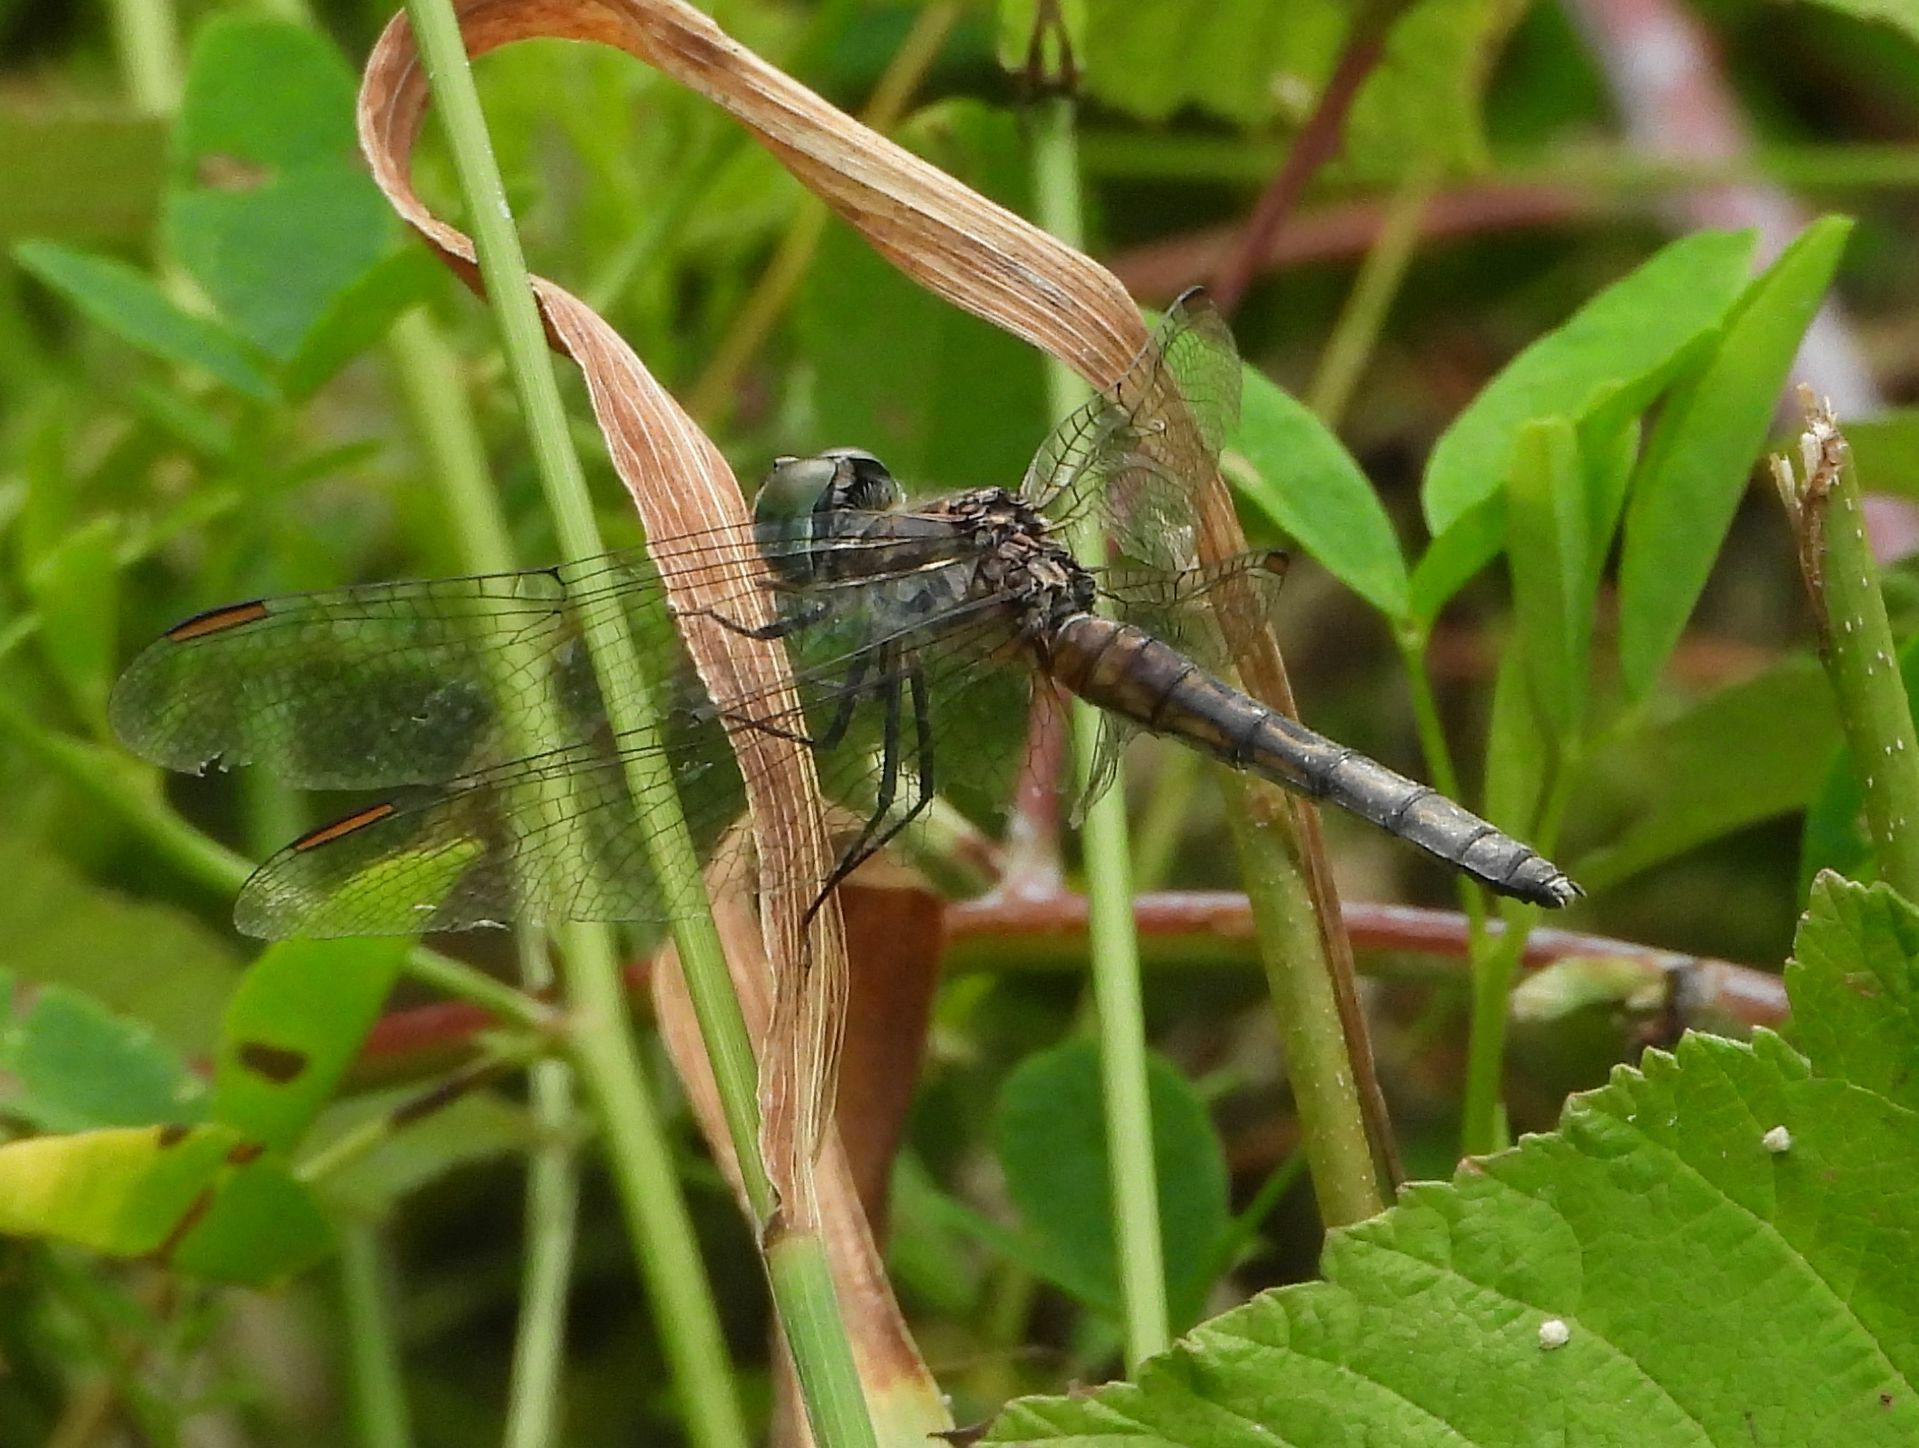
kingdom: Animalia
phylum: Arthropoda
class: Insecta
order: Odonata
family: Libellulidae
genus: Pachydiplax
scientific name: Pachydiplax longipennis
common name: Blue dasher
